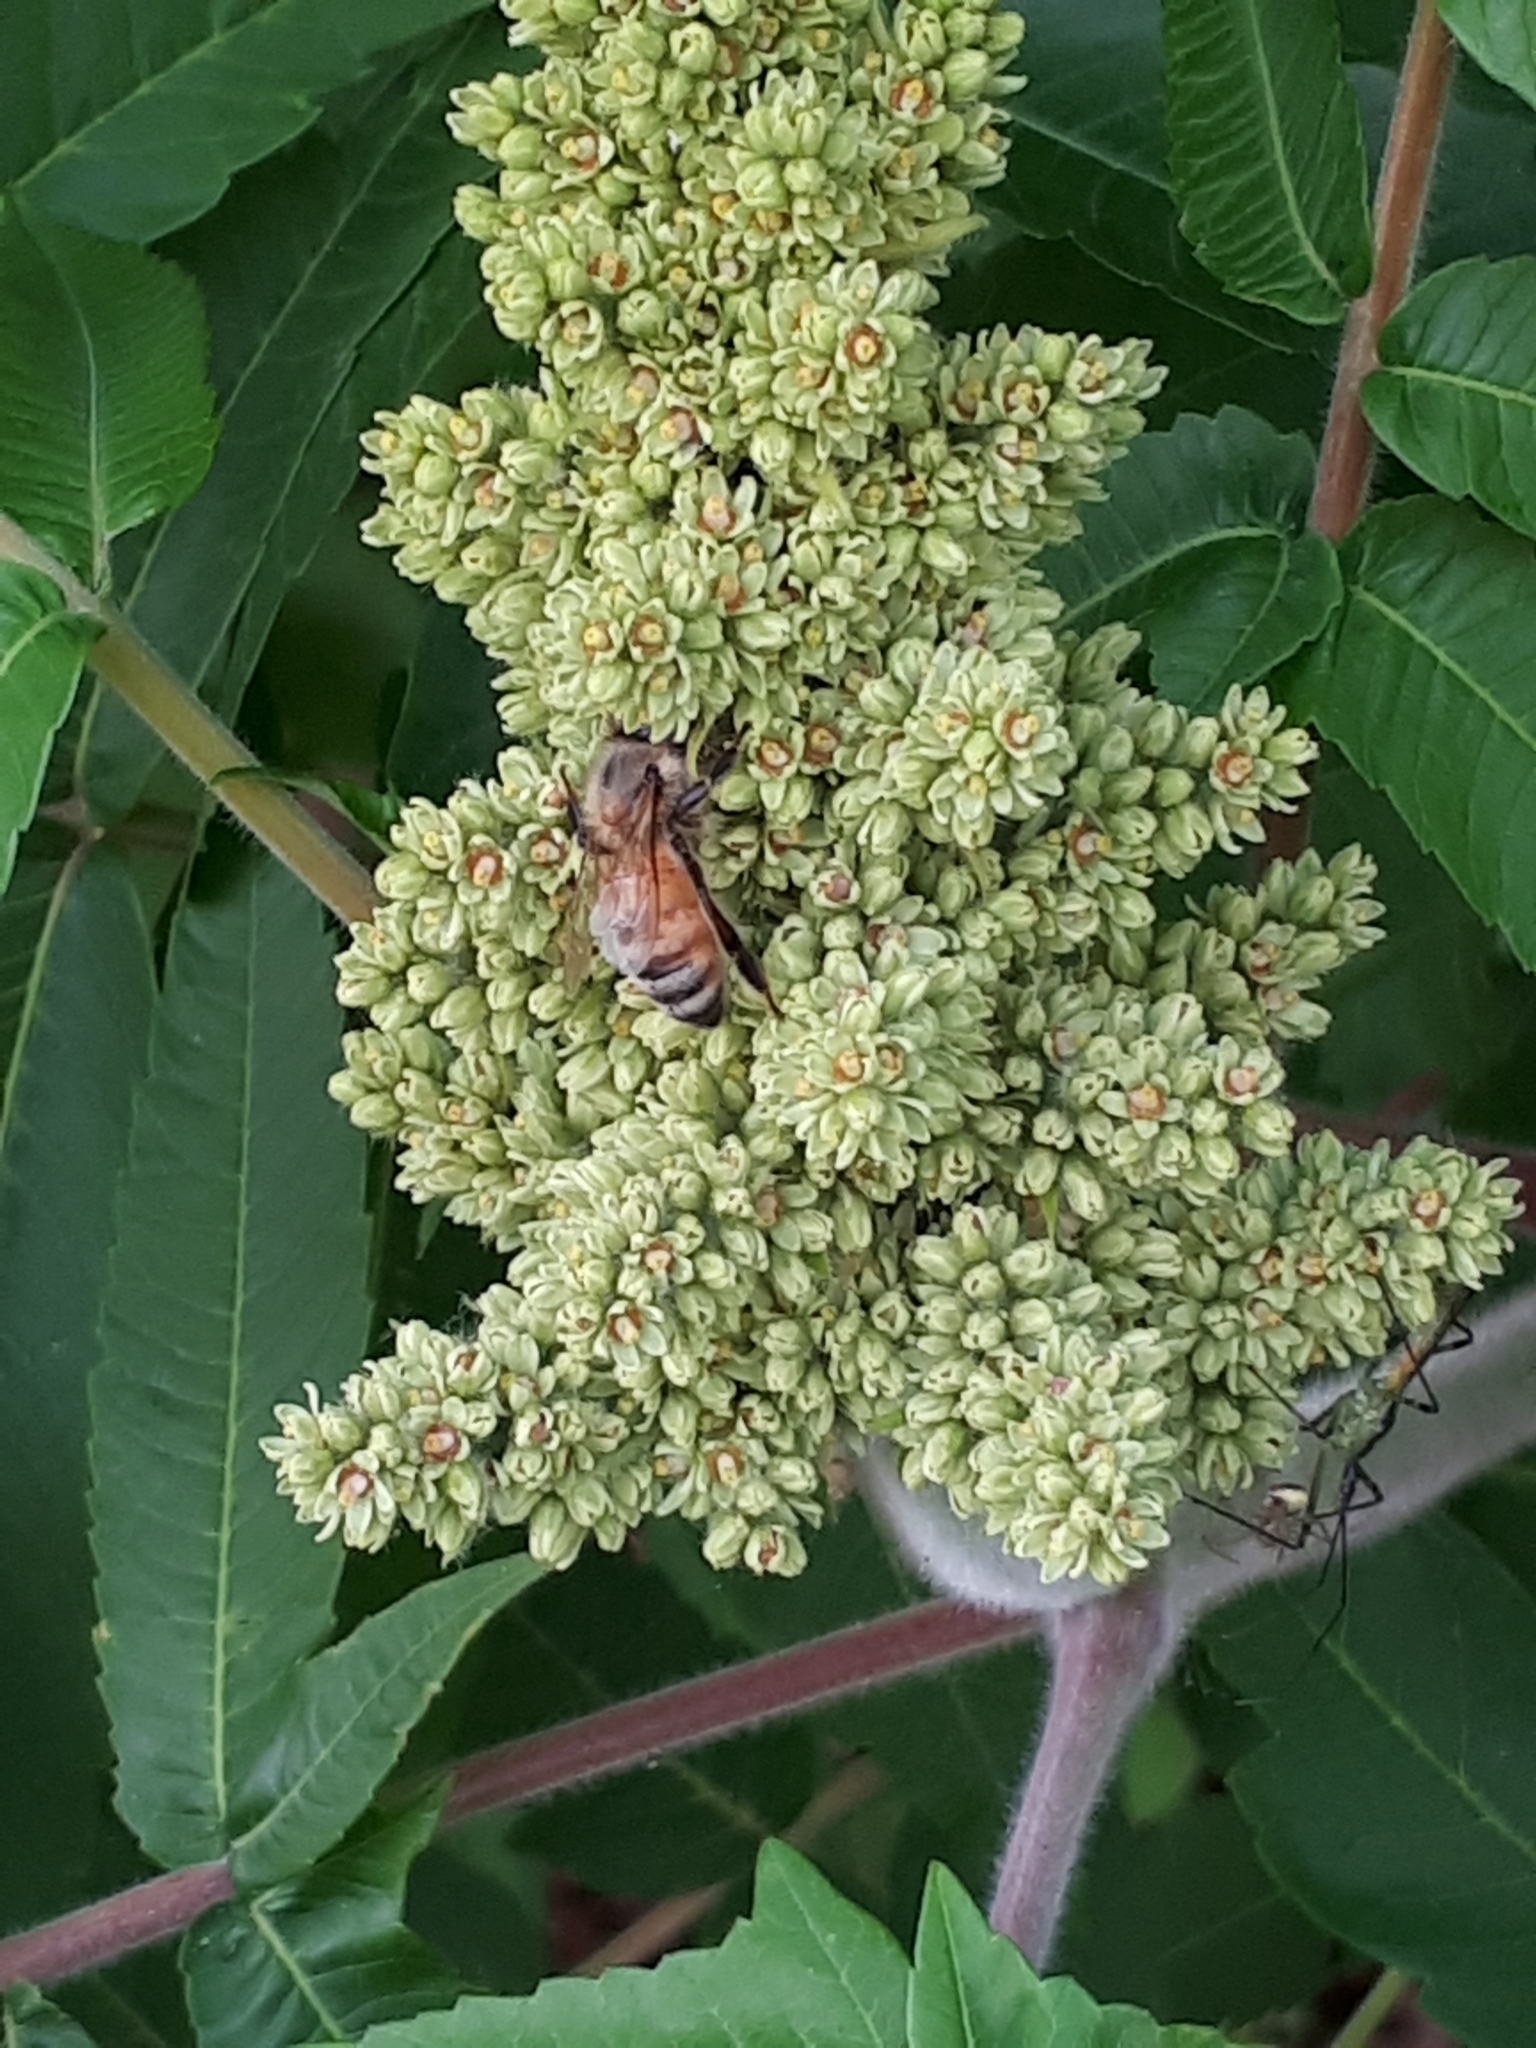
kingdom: Animalia
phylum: Arthropoda
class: Insecta
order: Hymenoptera
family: Apidae
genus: Apis
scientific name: Apis mellifera
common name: Honey bee
